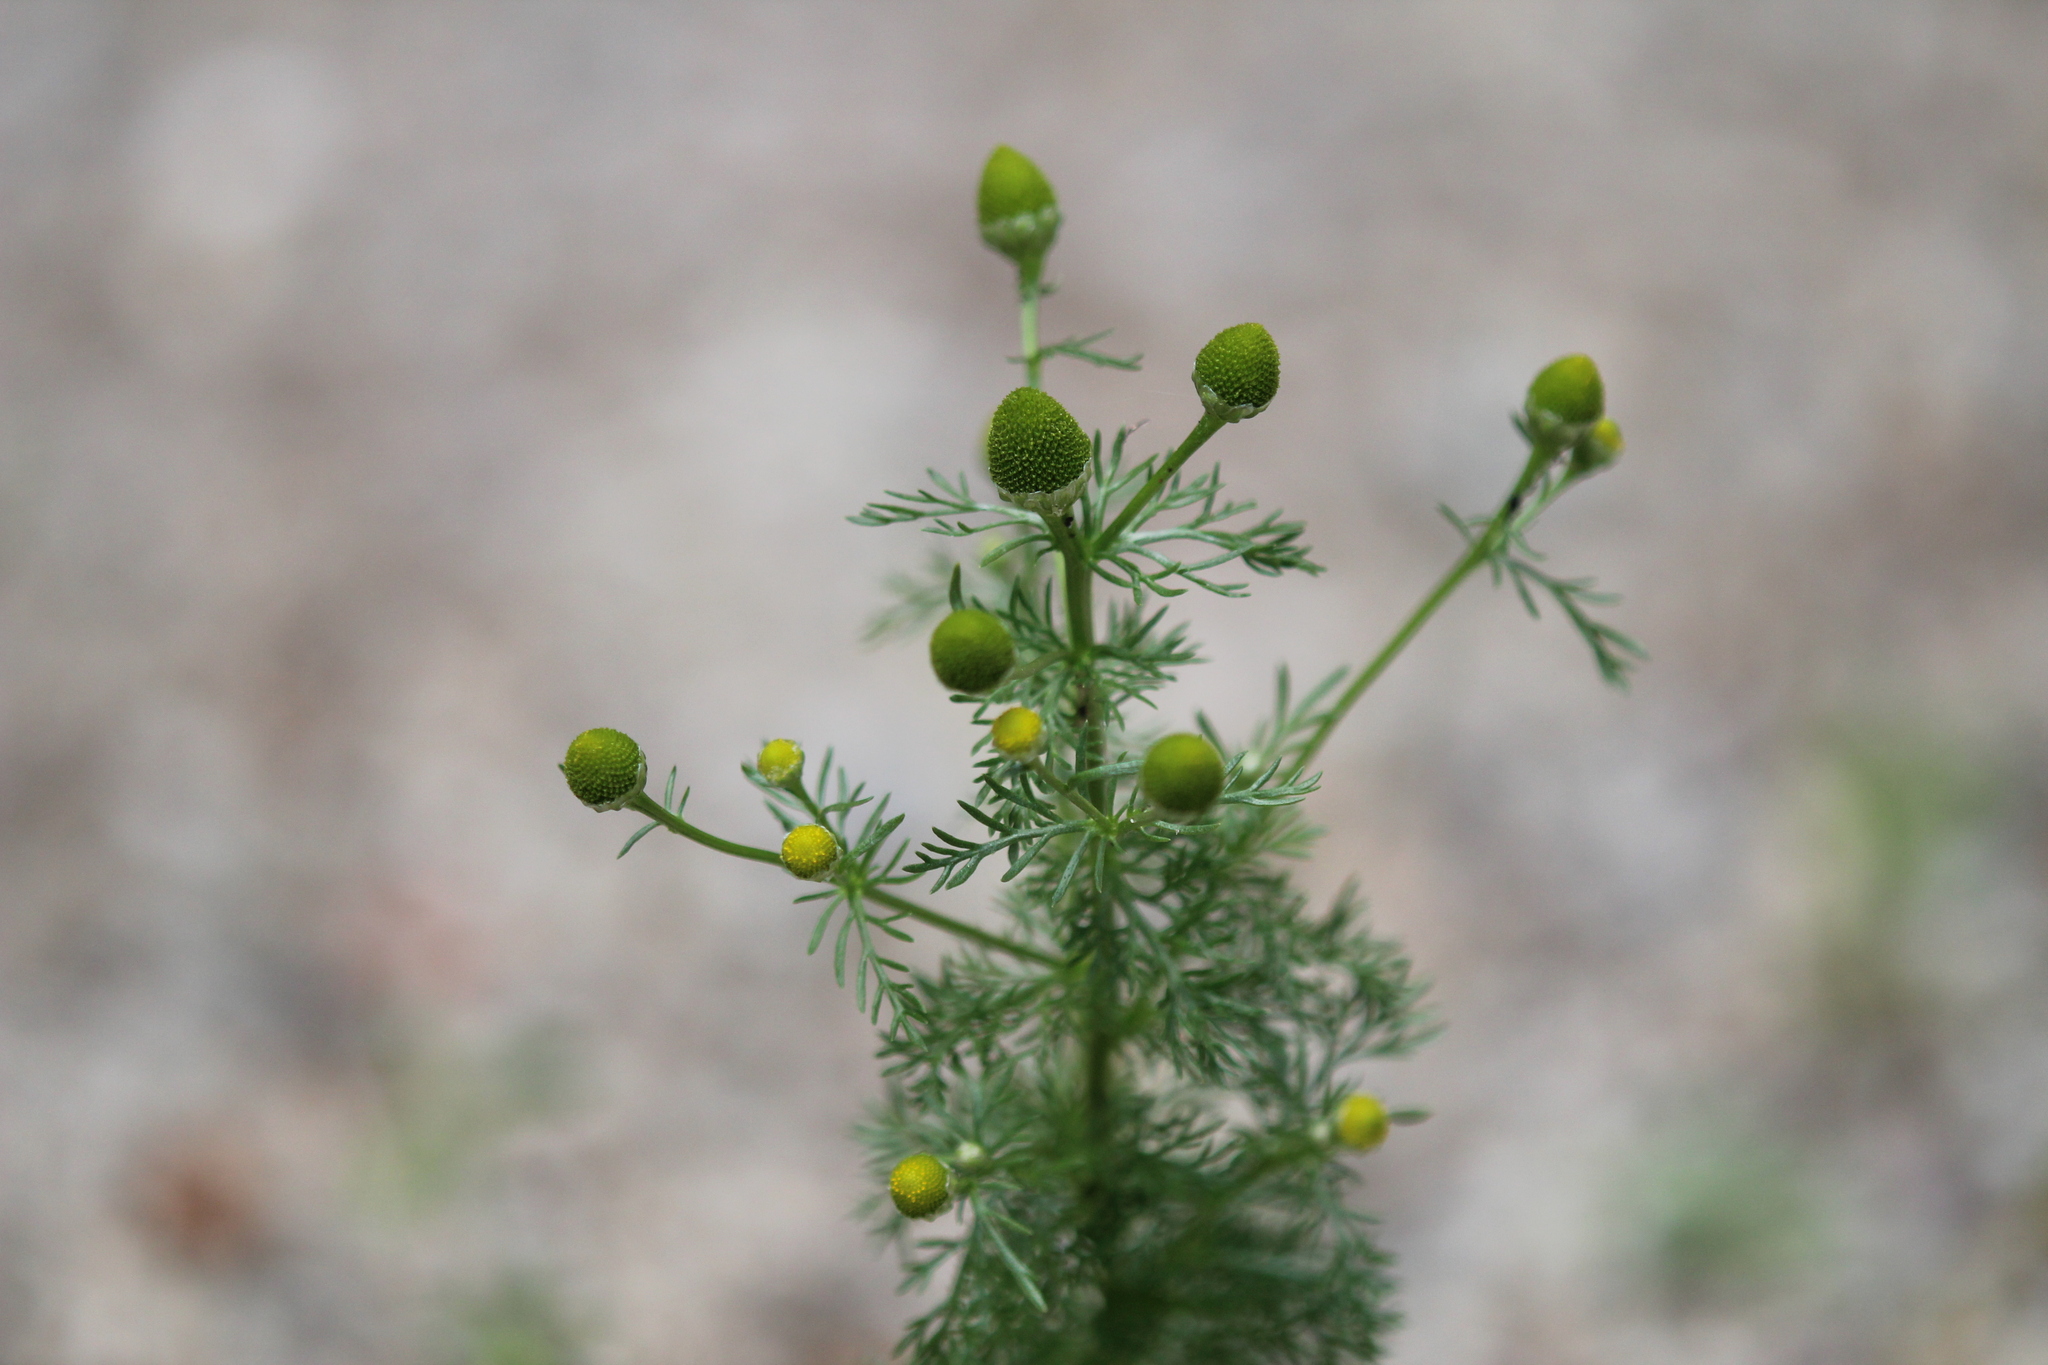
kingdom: Plantae
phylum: Tracheophyta
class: Magnoliopsida
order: Asterales
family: Asteraceae
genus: Matricaria
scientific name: Matricaria discoidea
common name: Disc mayweed
